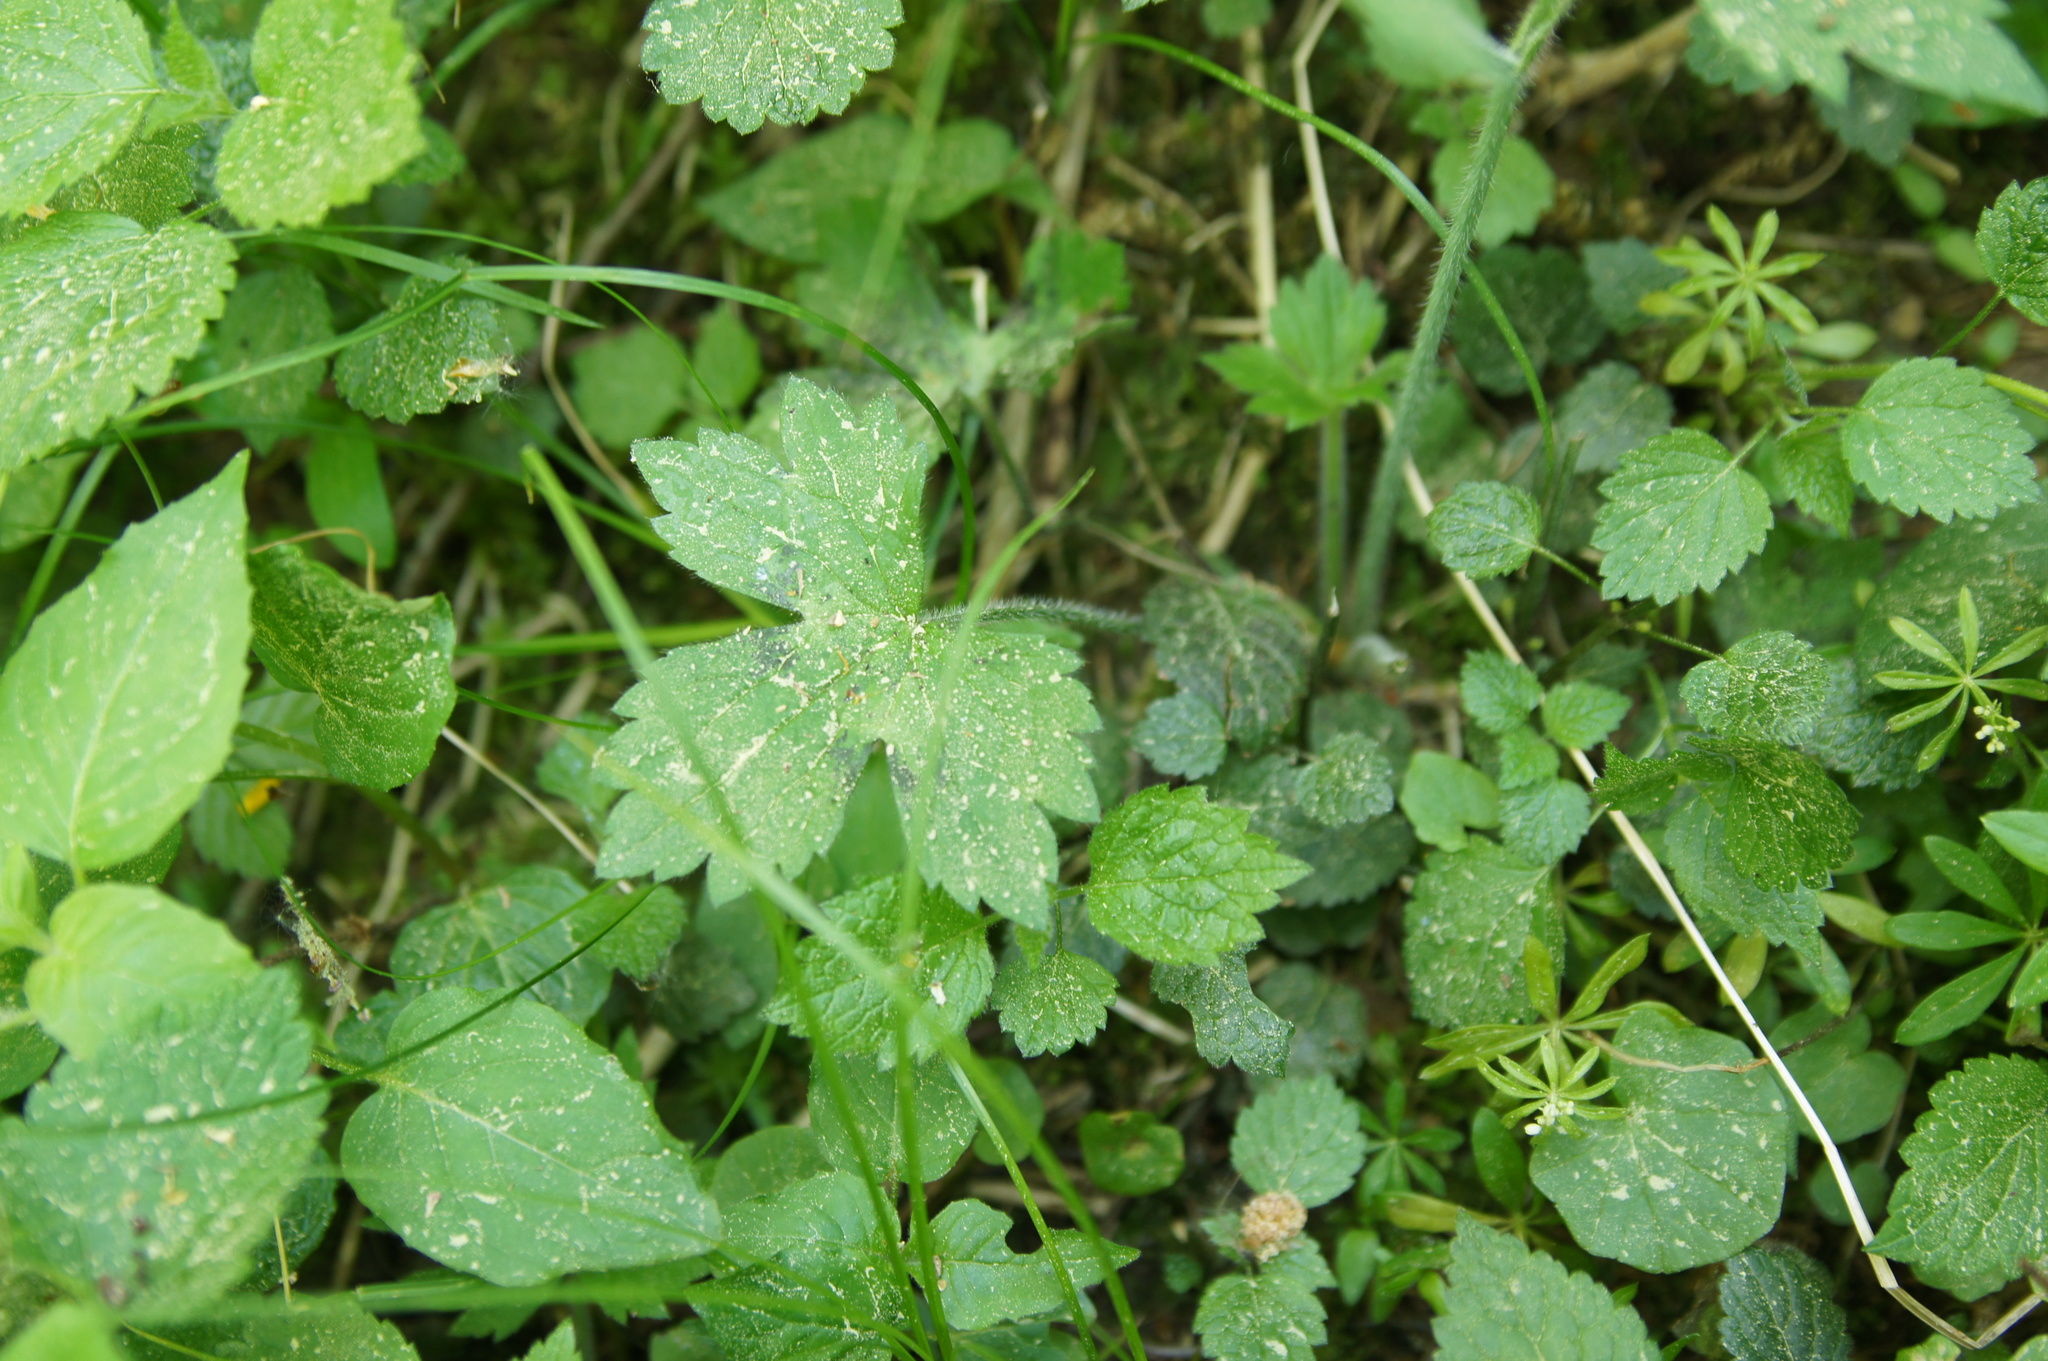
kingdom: Plantae
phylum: Tracheophyta
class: Magnoliopsida
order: Ranunculales
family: Ranunculaceae
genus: Ranunculus
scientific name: Ranunculus lanuginosus
